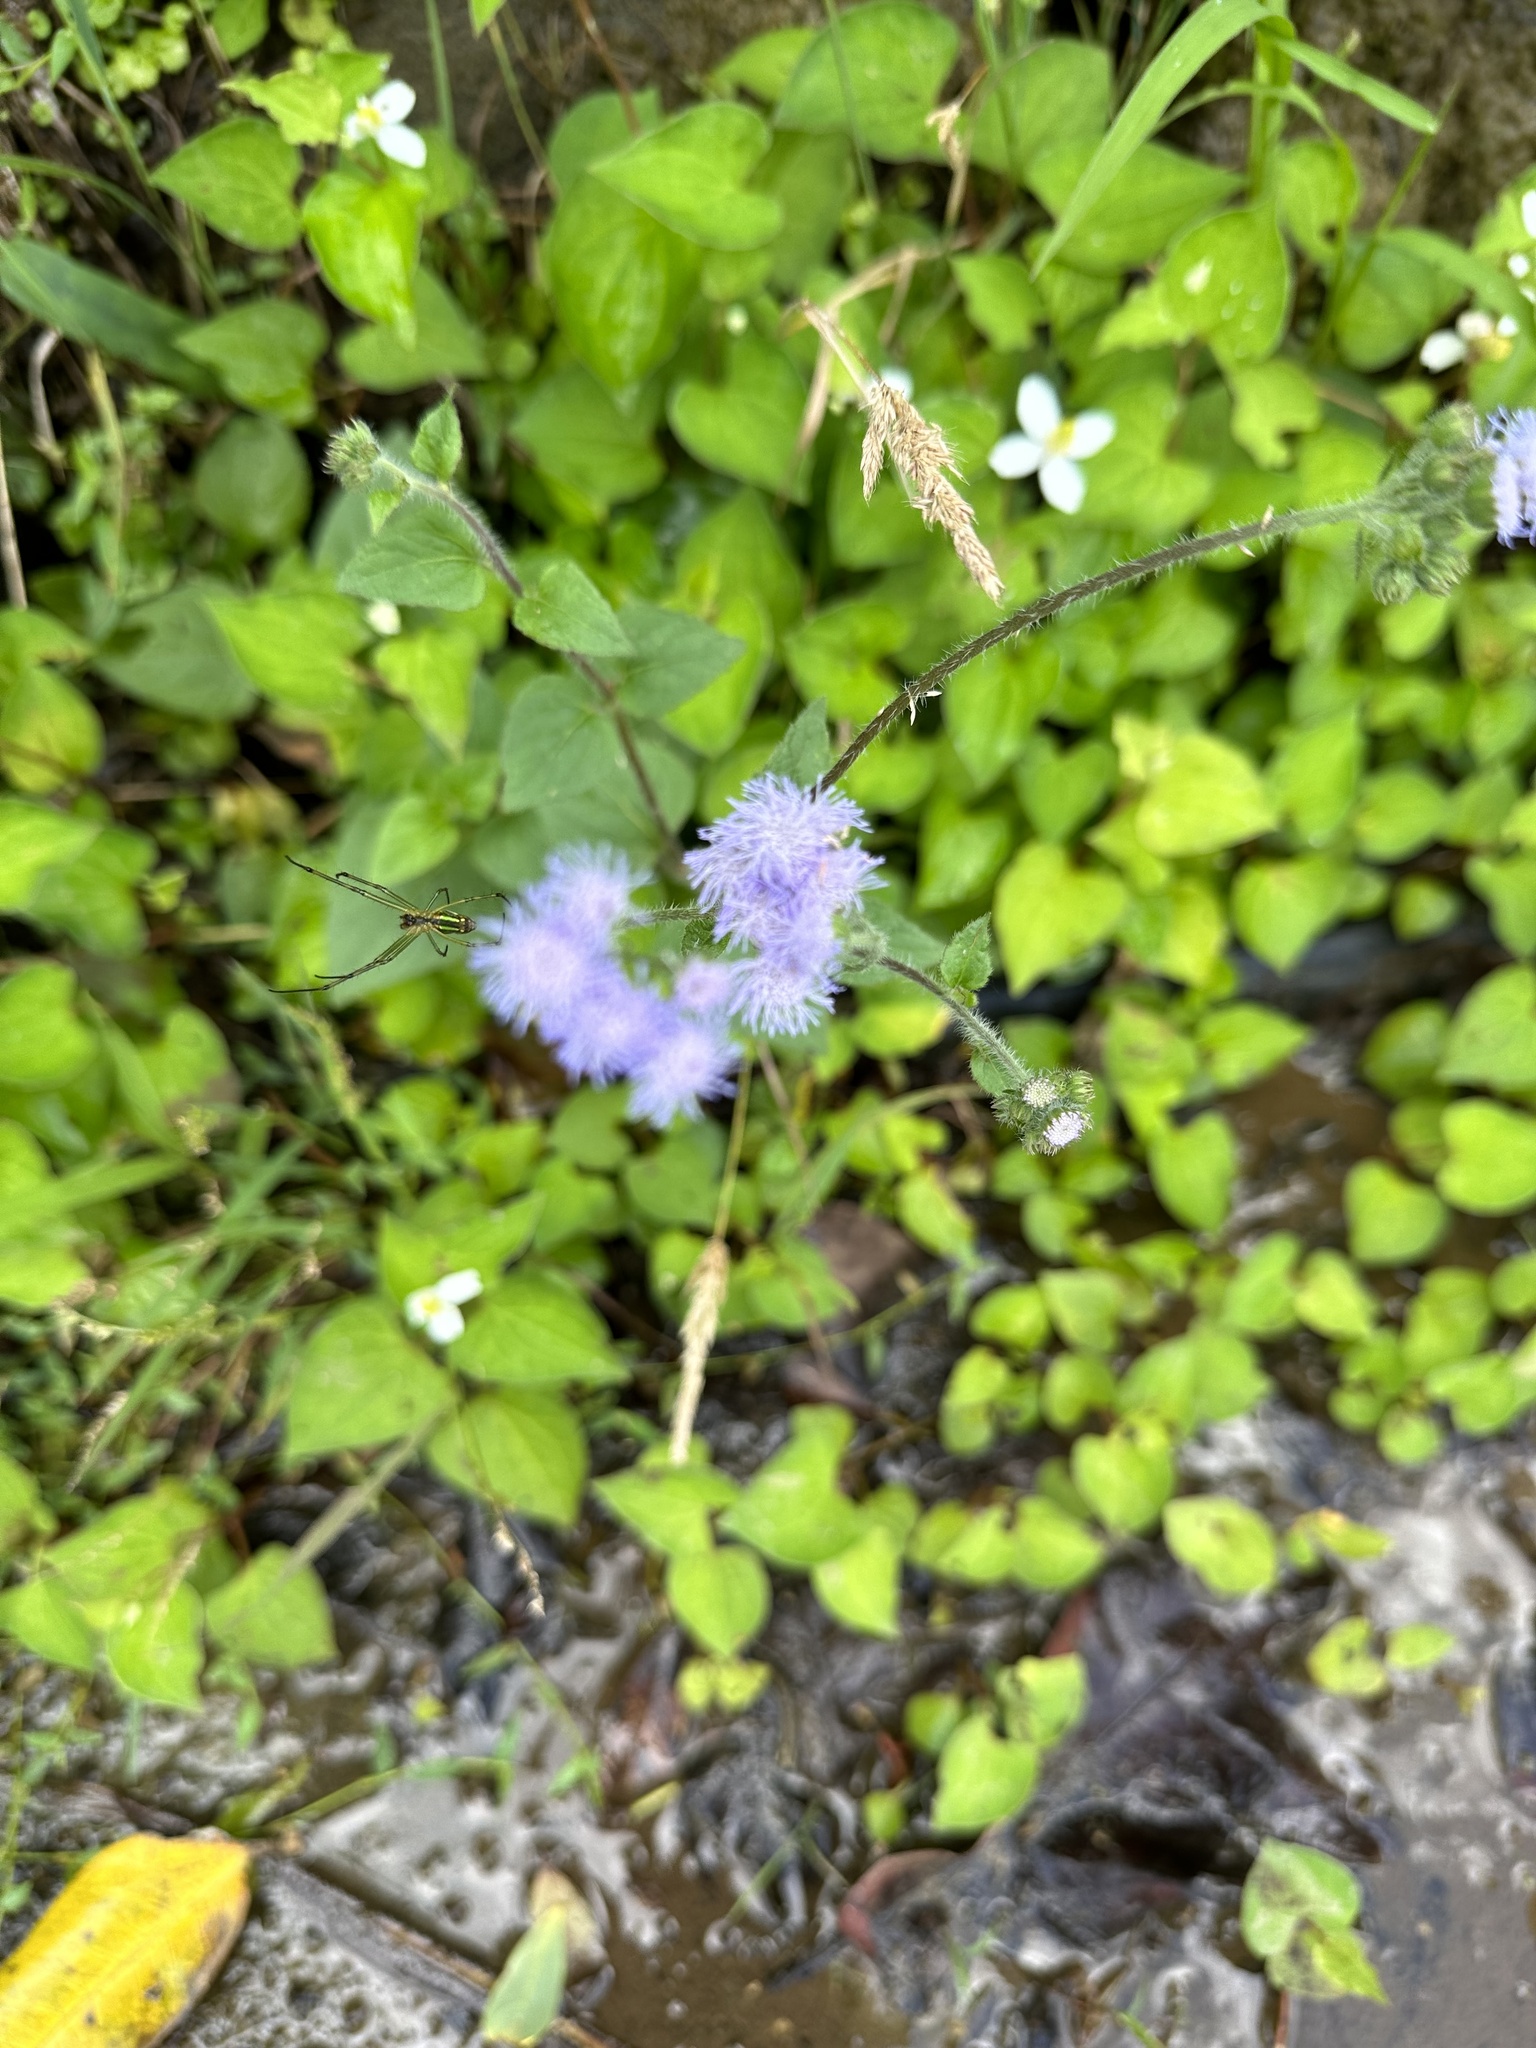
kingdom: Plantae
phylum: Tracheophyta
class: Magnoliopsida
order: Asterales
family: Asteraceae
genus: Ageratum
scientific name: Ageratum houstonianum
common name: Bluemink
